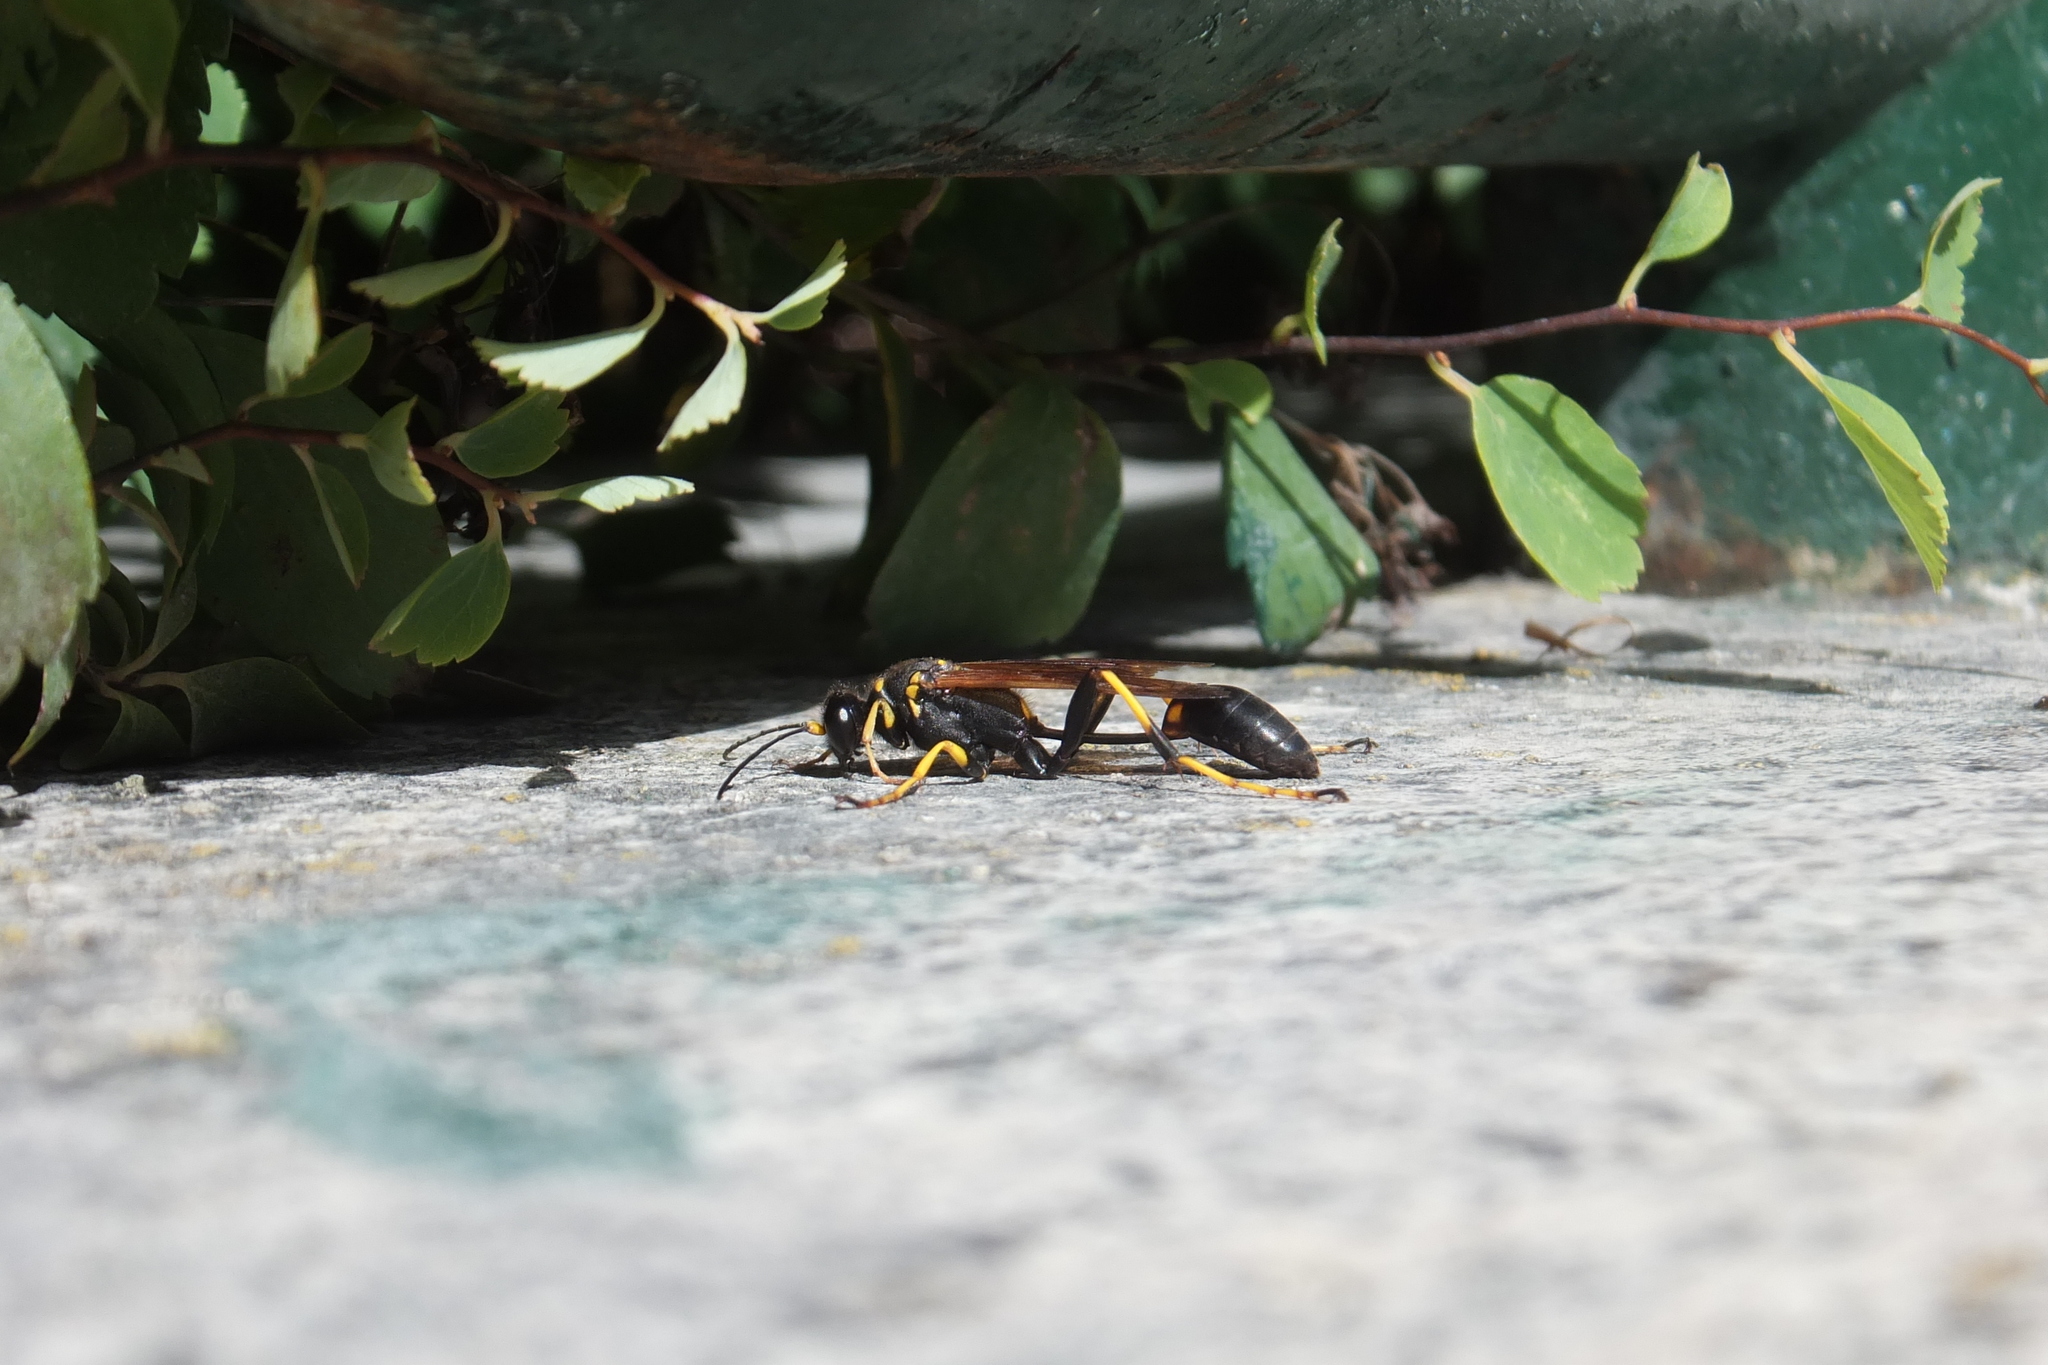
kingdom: Animalia
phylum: Arthropoda
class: Insecta
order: Hymenoptera
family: Sphecidae
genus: Sceliphron
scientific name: Sceliphron caementarium
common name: Mud dauber
